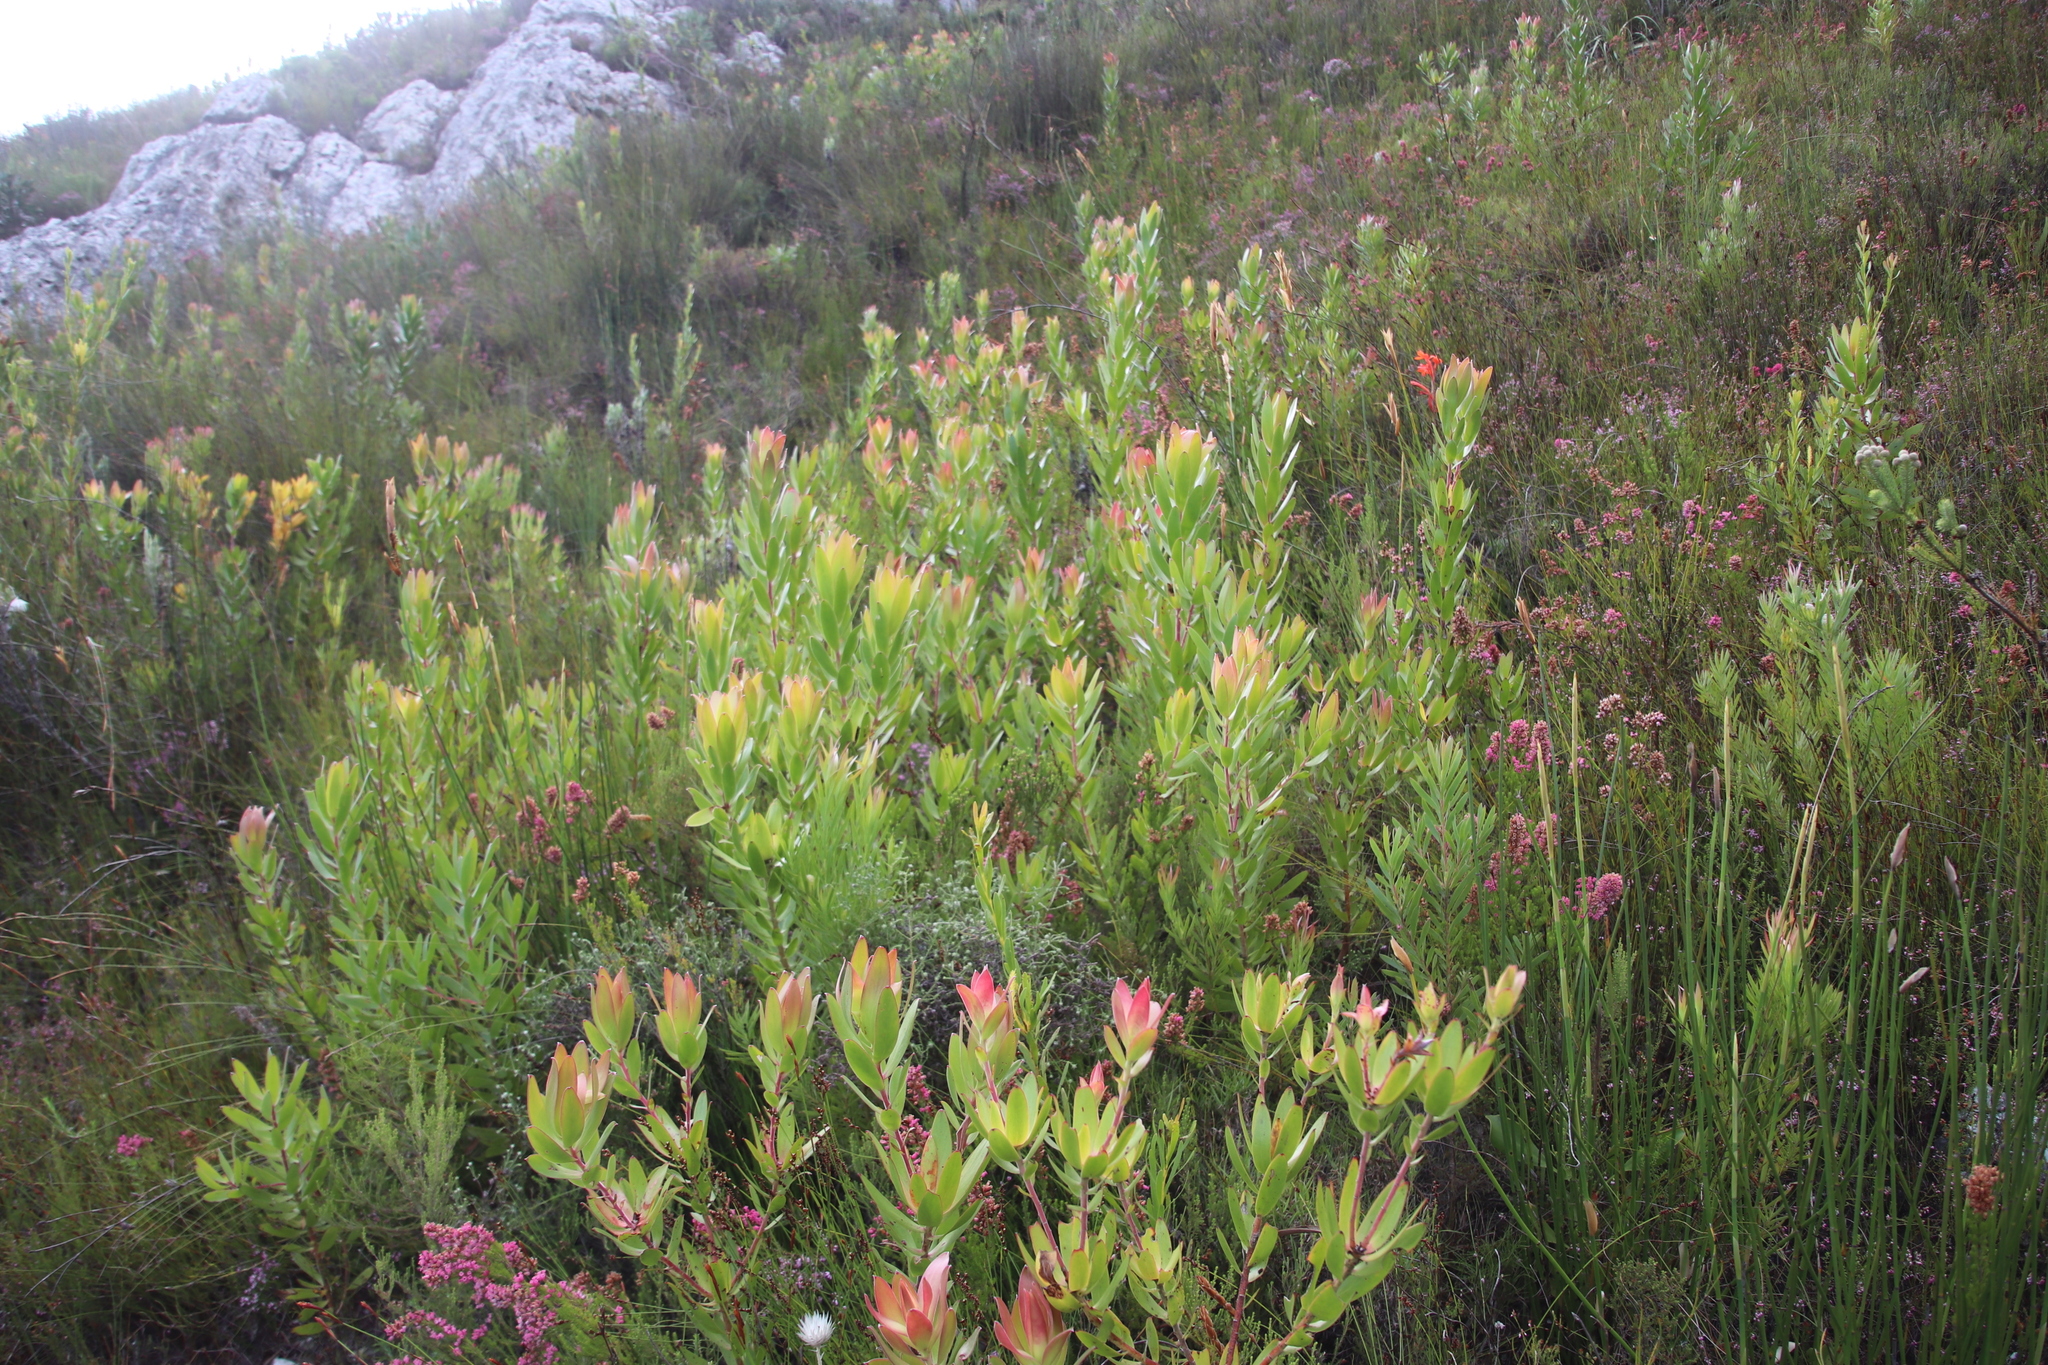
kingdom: Plantae
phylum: Tracheophyta
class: Magnoliopsida
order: Proteales
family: Proteaceae
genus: Leucadendron
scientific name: Leucadendron gandogeri
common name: Broad-leaf conebush
